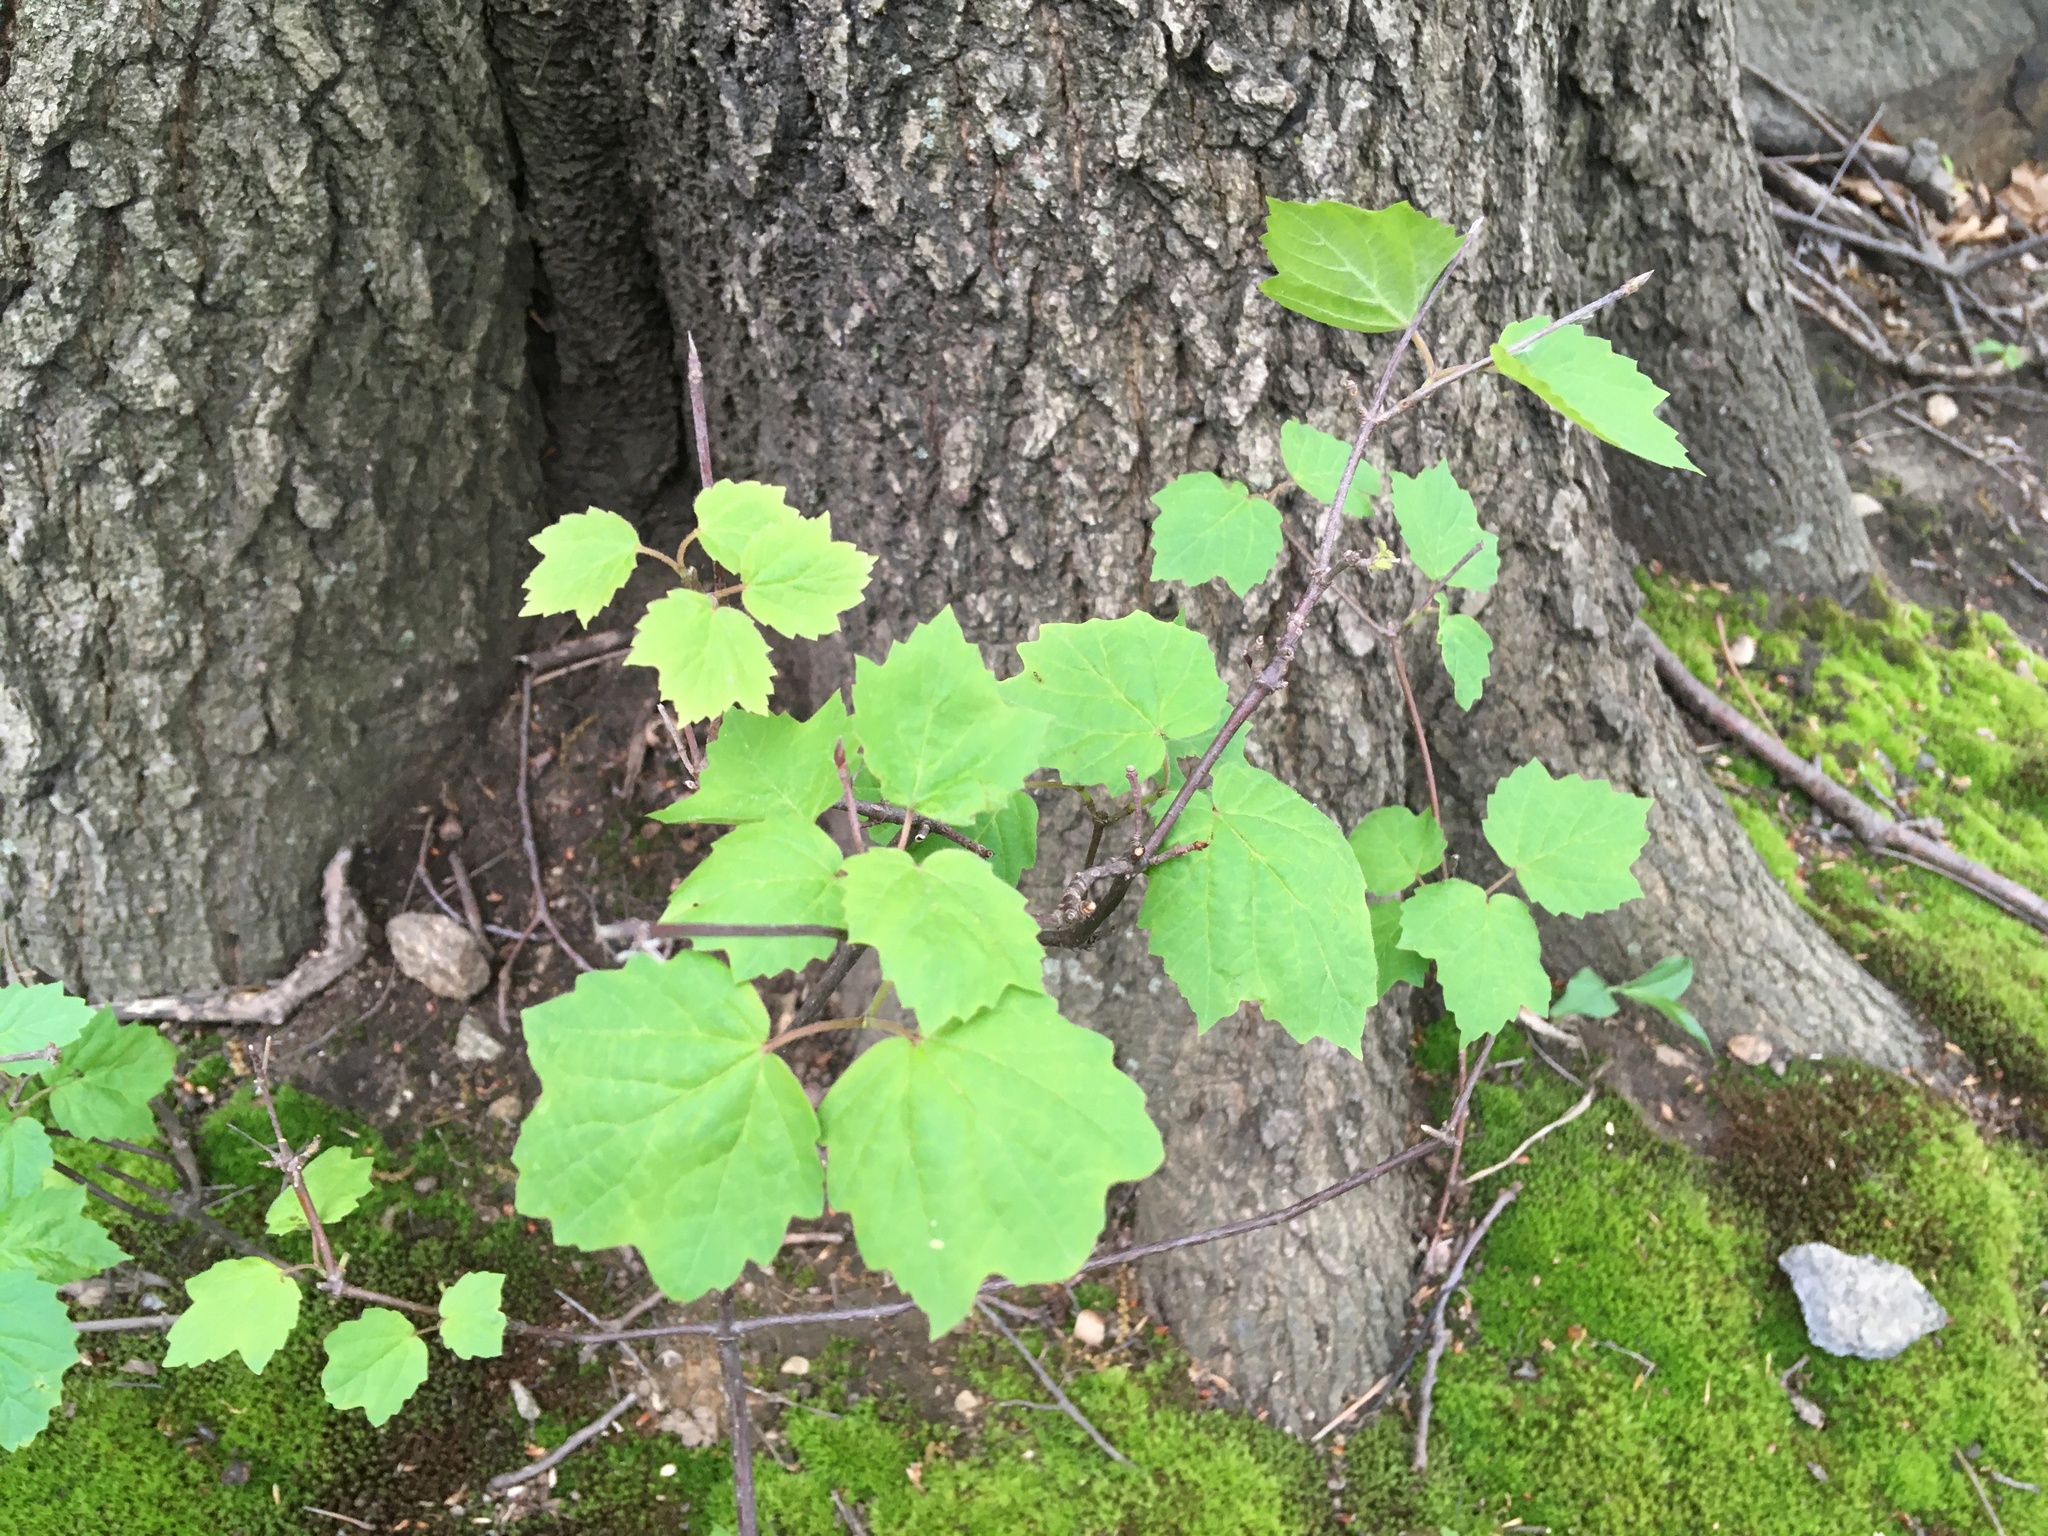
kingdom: Plantae
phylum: Tracheophyta
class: Magnoliopsida
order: Dipsacales
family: Viburnaceae
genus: Viburnum
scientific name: Viburnum acerifolium
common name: Dockmackie
